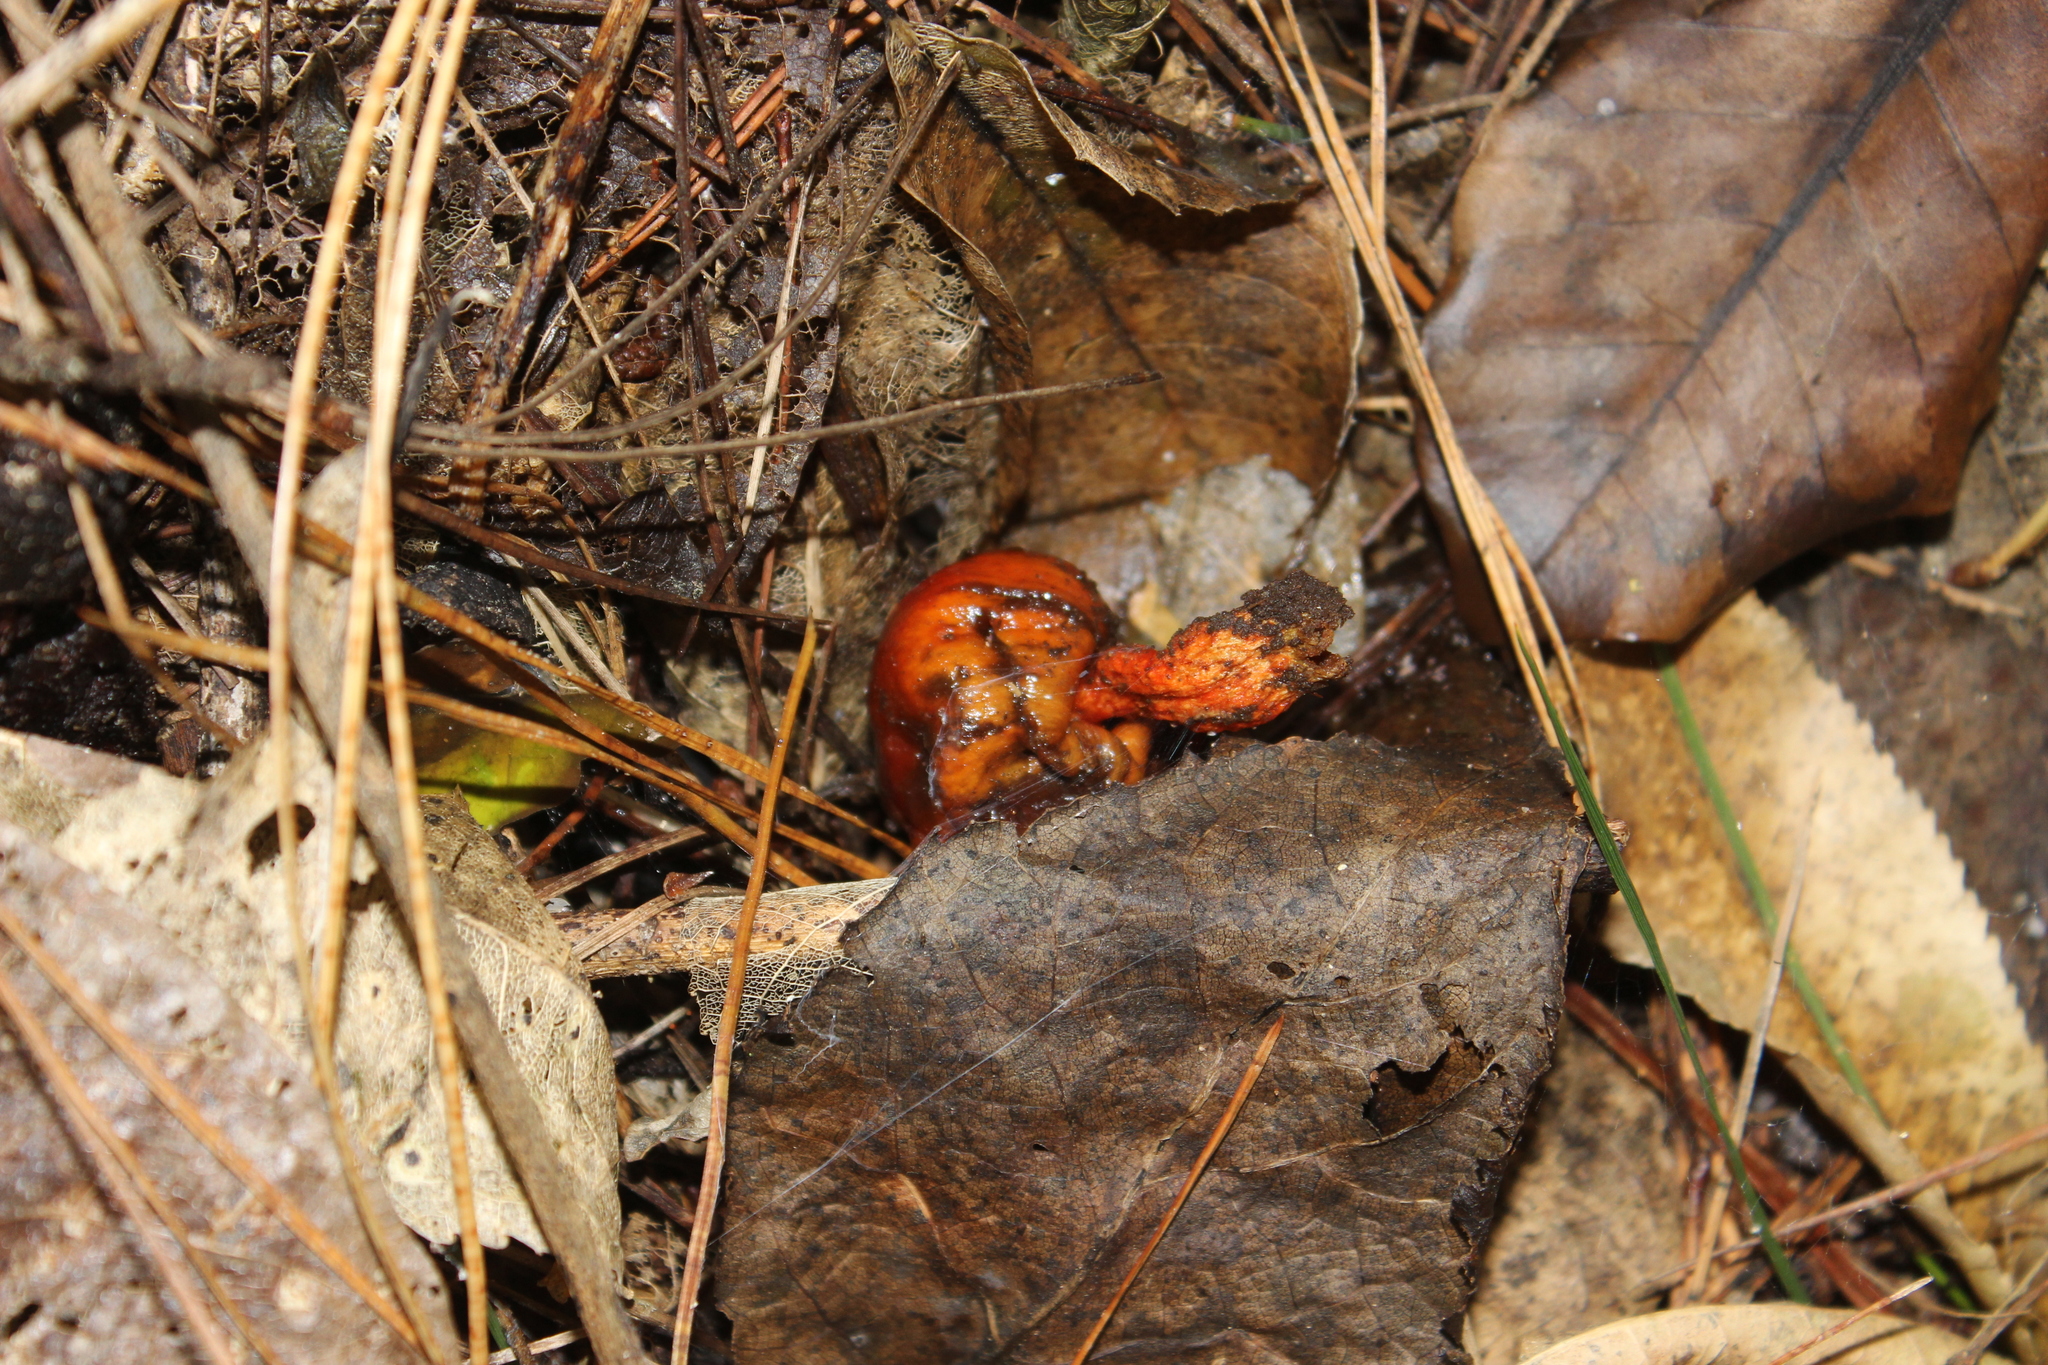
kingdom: Fungi
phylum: Basidiomycota
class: Agaricomycetes
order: Agaricales
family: Strophariaceae
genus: Leratiomyces
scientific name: Leratiomyces erythrocephalus
